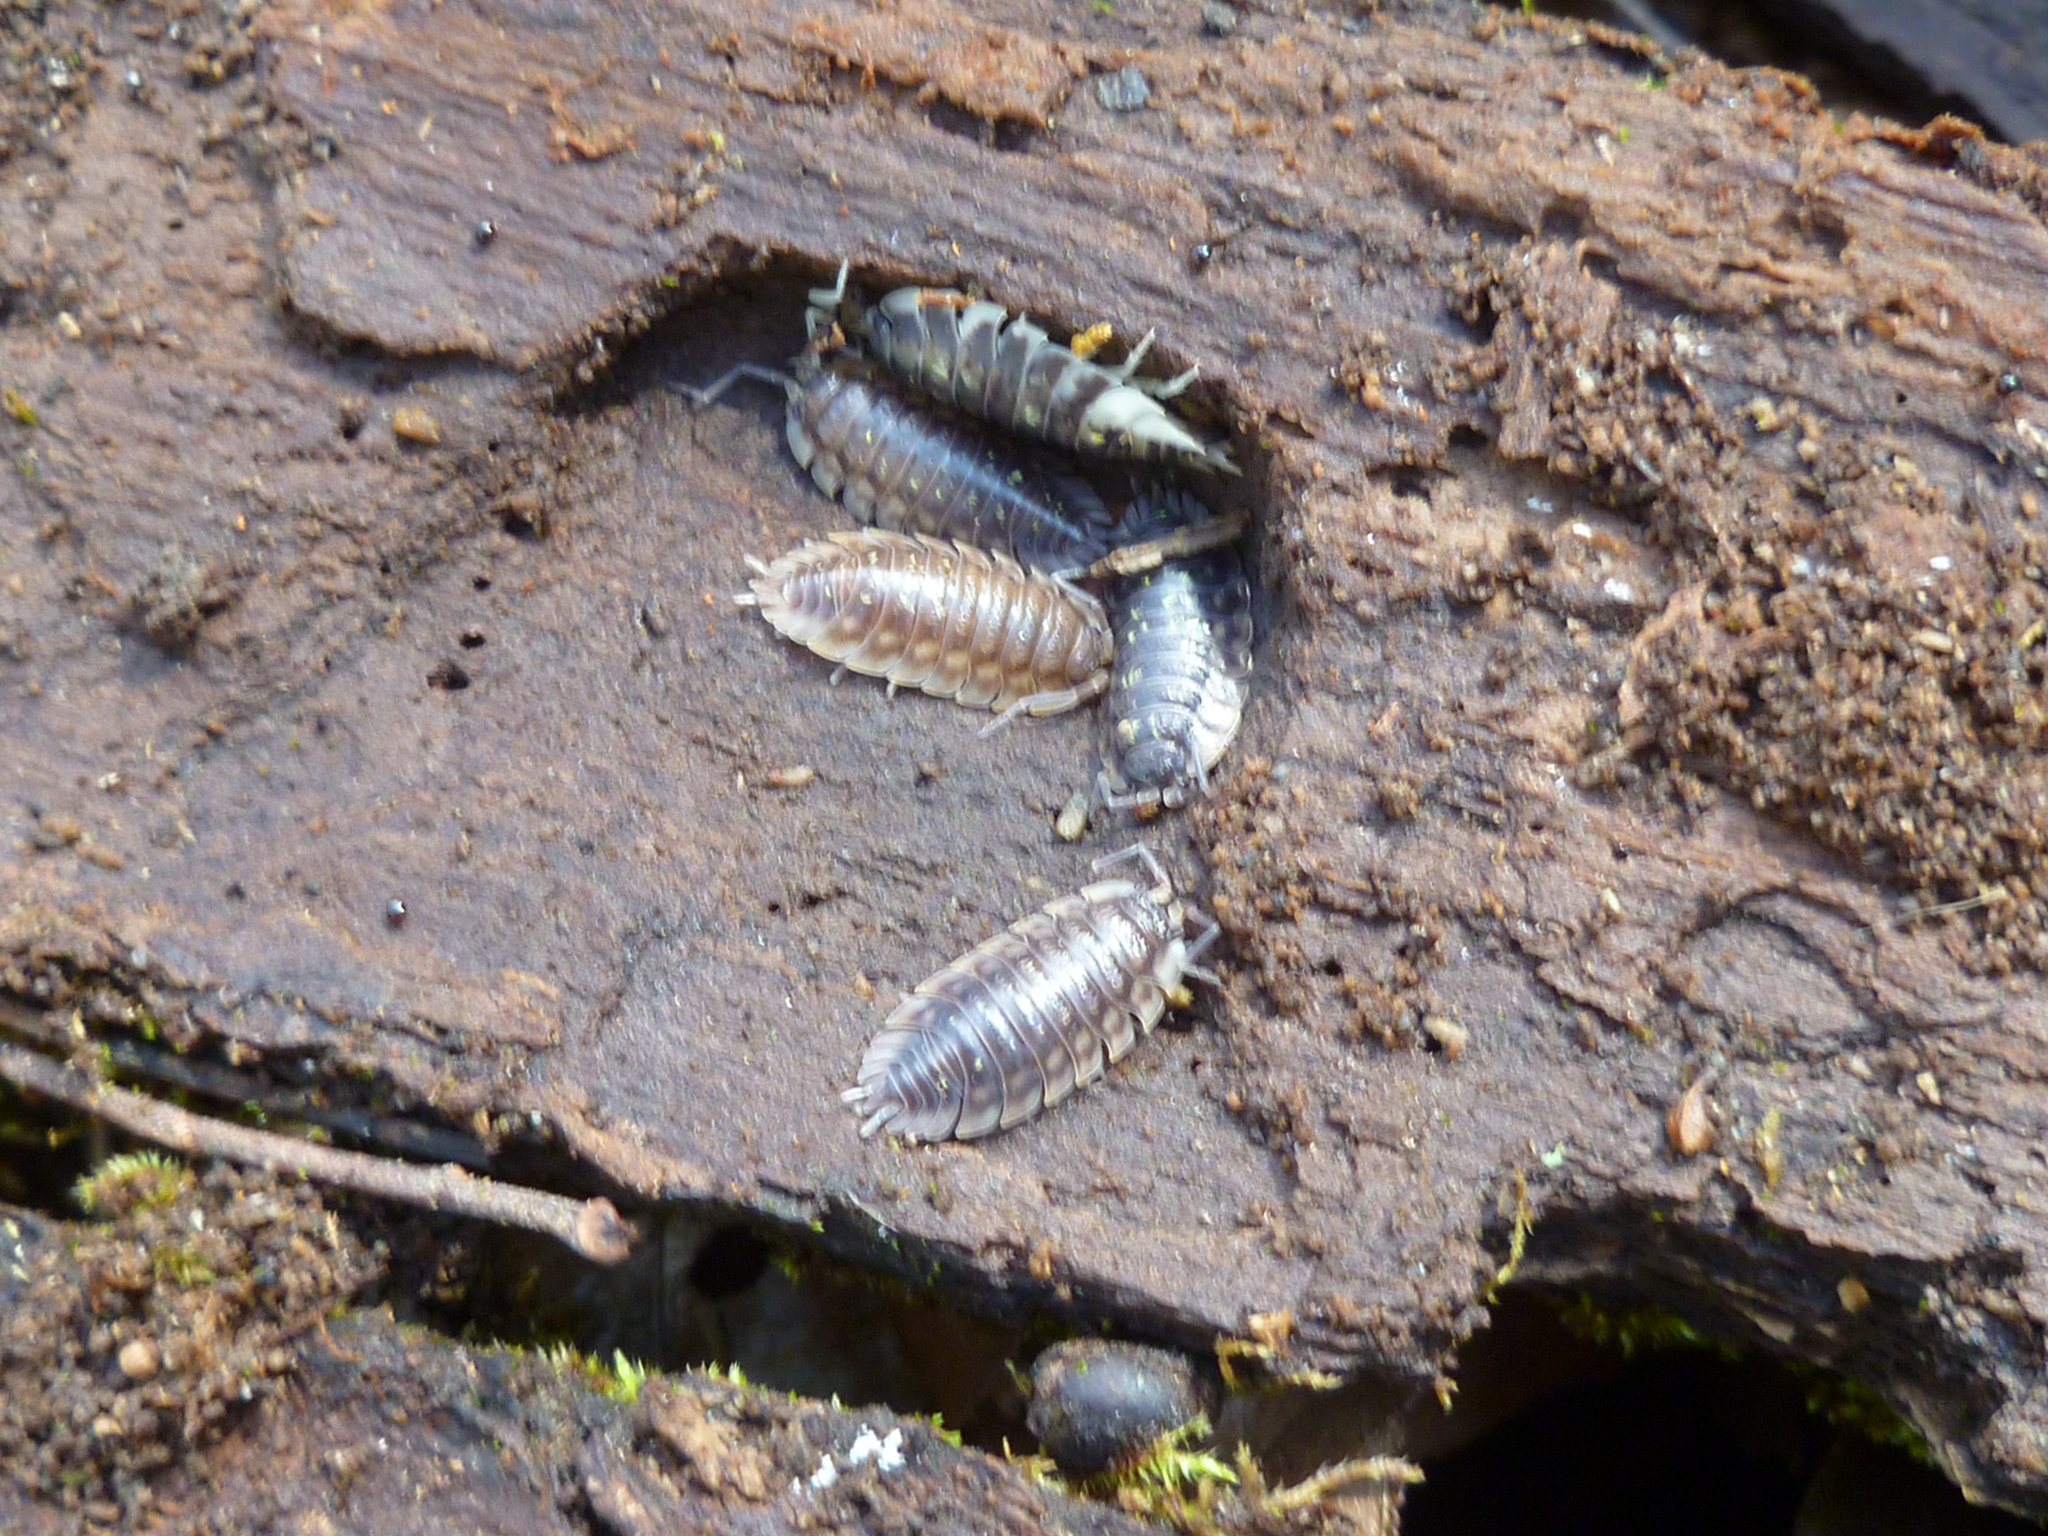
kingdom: Animalia
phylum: Arthropoda
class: Malacostraca
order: Isopoda
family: Oniscidae
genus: Oniscus
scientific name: Oniscus asellus
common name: Common shiny woodlouse
